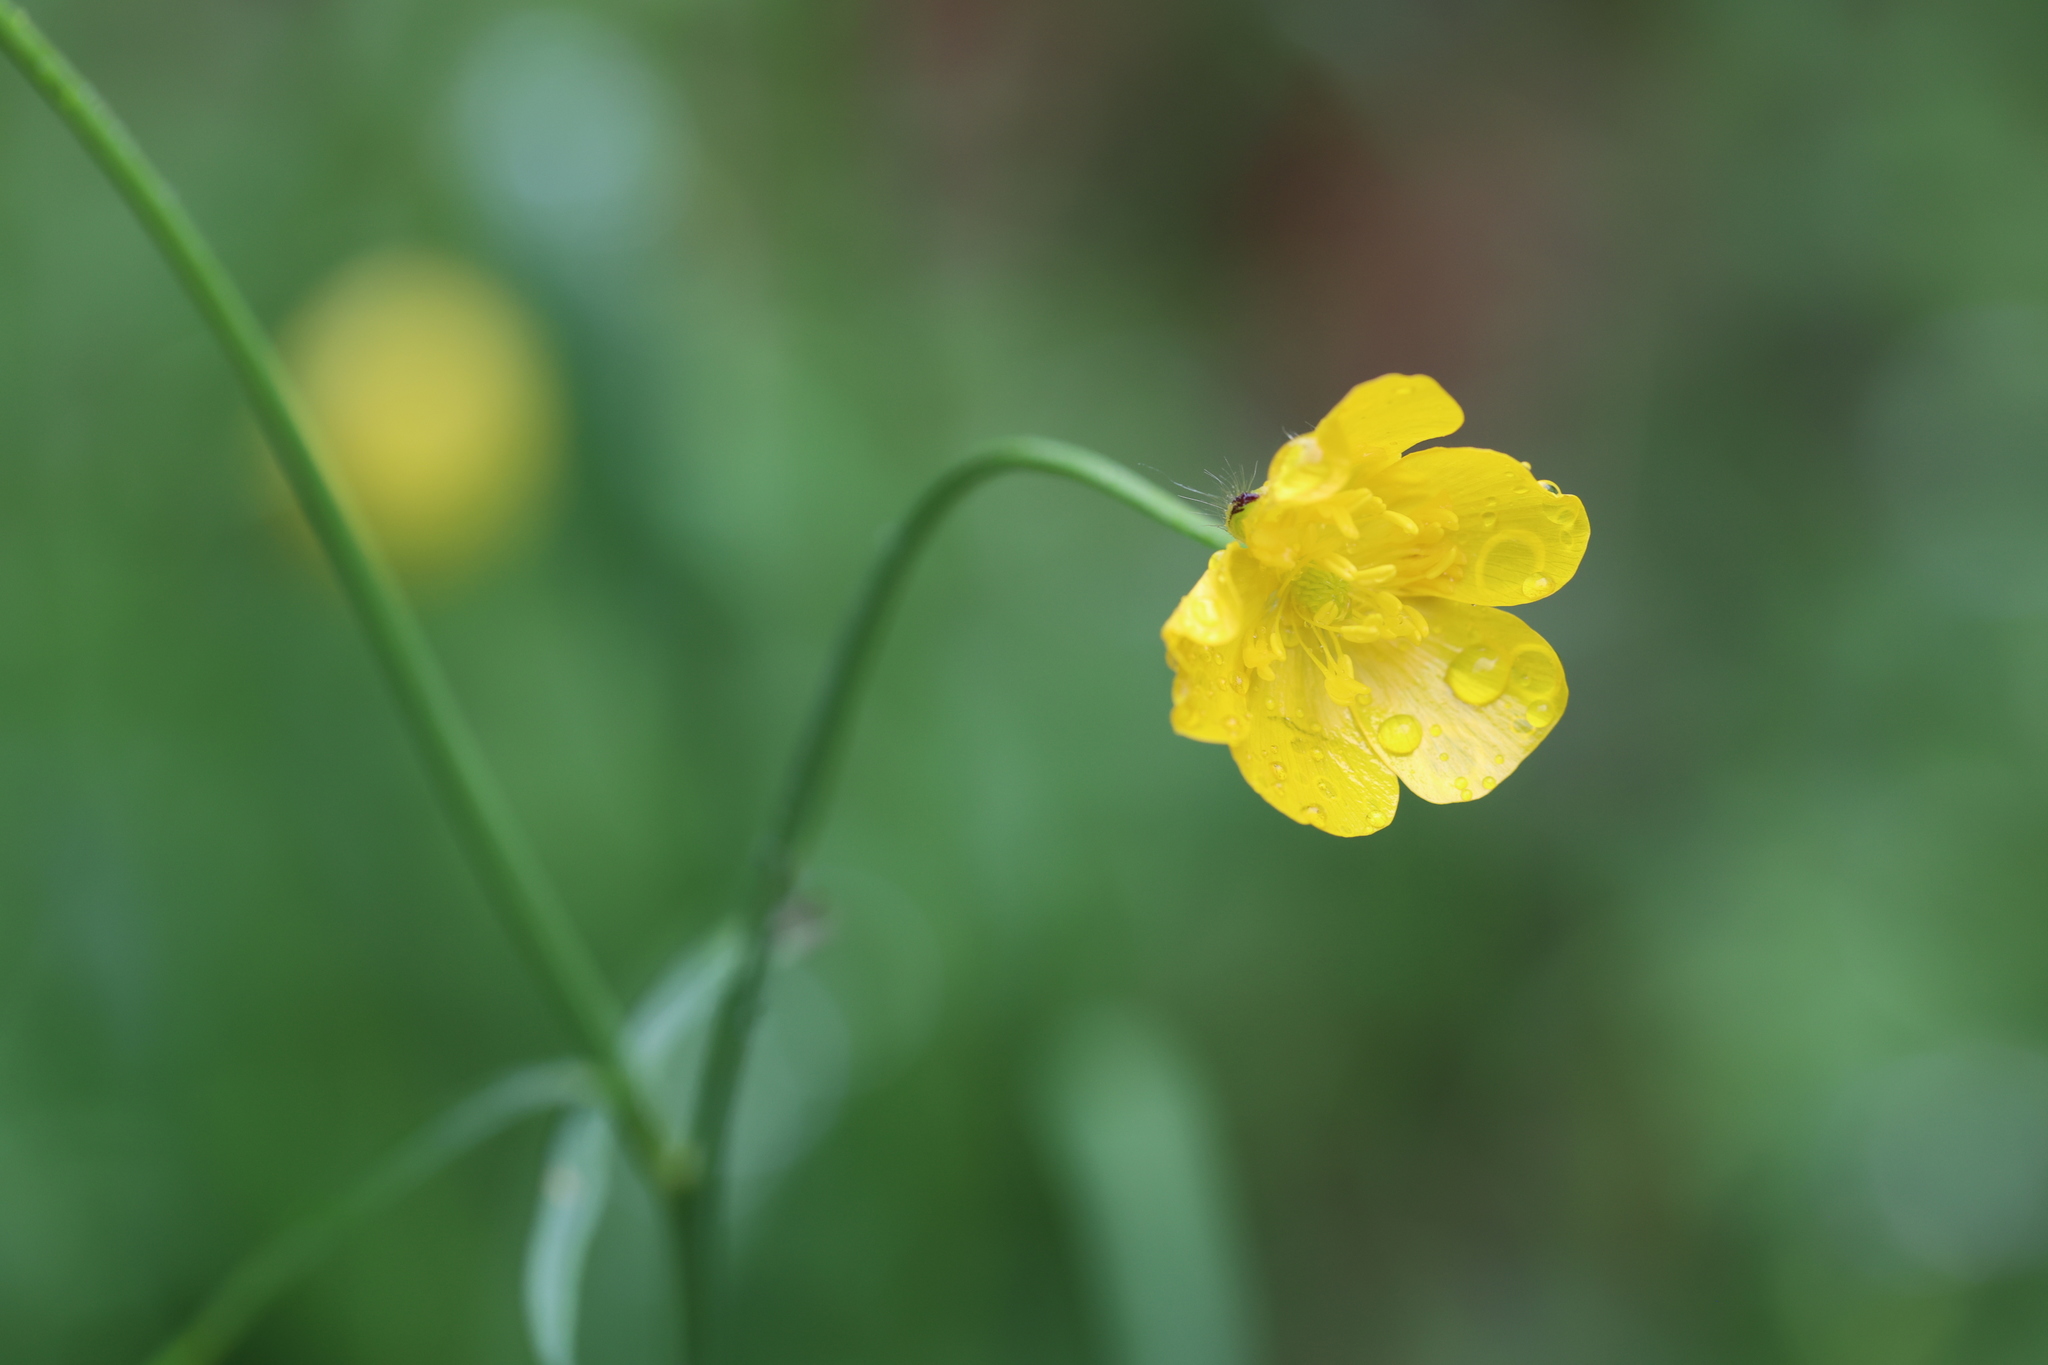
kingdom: Plantae
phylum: Tracheophyta
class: Magnoliopsida
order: Ranunculales
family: Ranunculaceae
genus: Ranunculus
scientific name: Ranunculus acris
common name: Meadow buttercup
